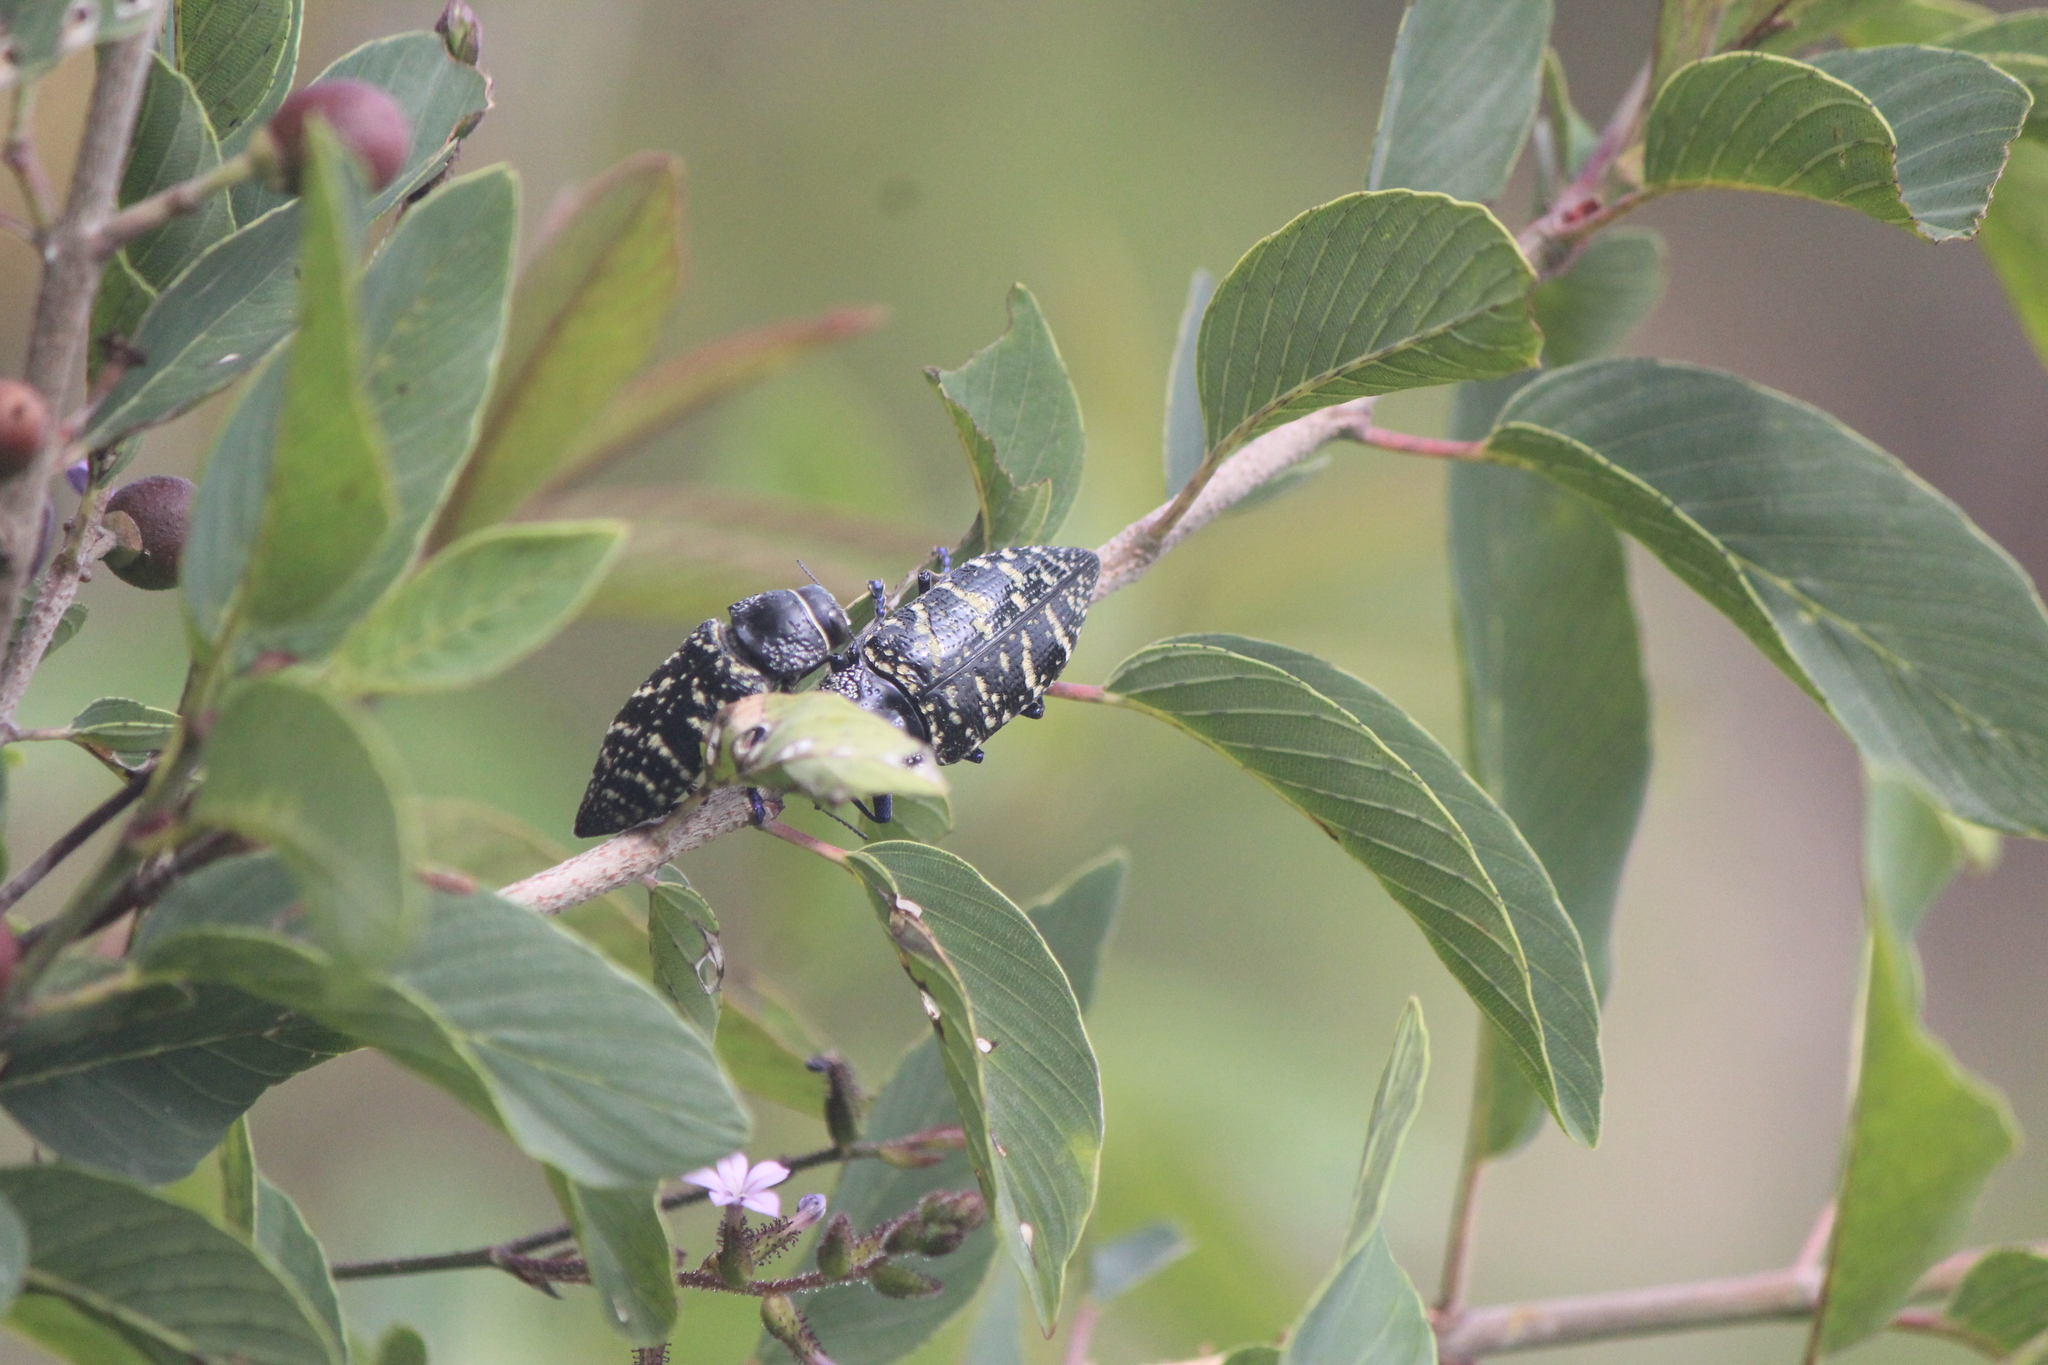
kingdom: Animalia
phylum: Arthropoda
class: Insecta
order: Coleoptera
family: Buprestidae
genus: Lampetis
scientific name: Lampetis dilaticollis
